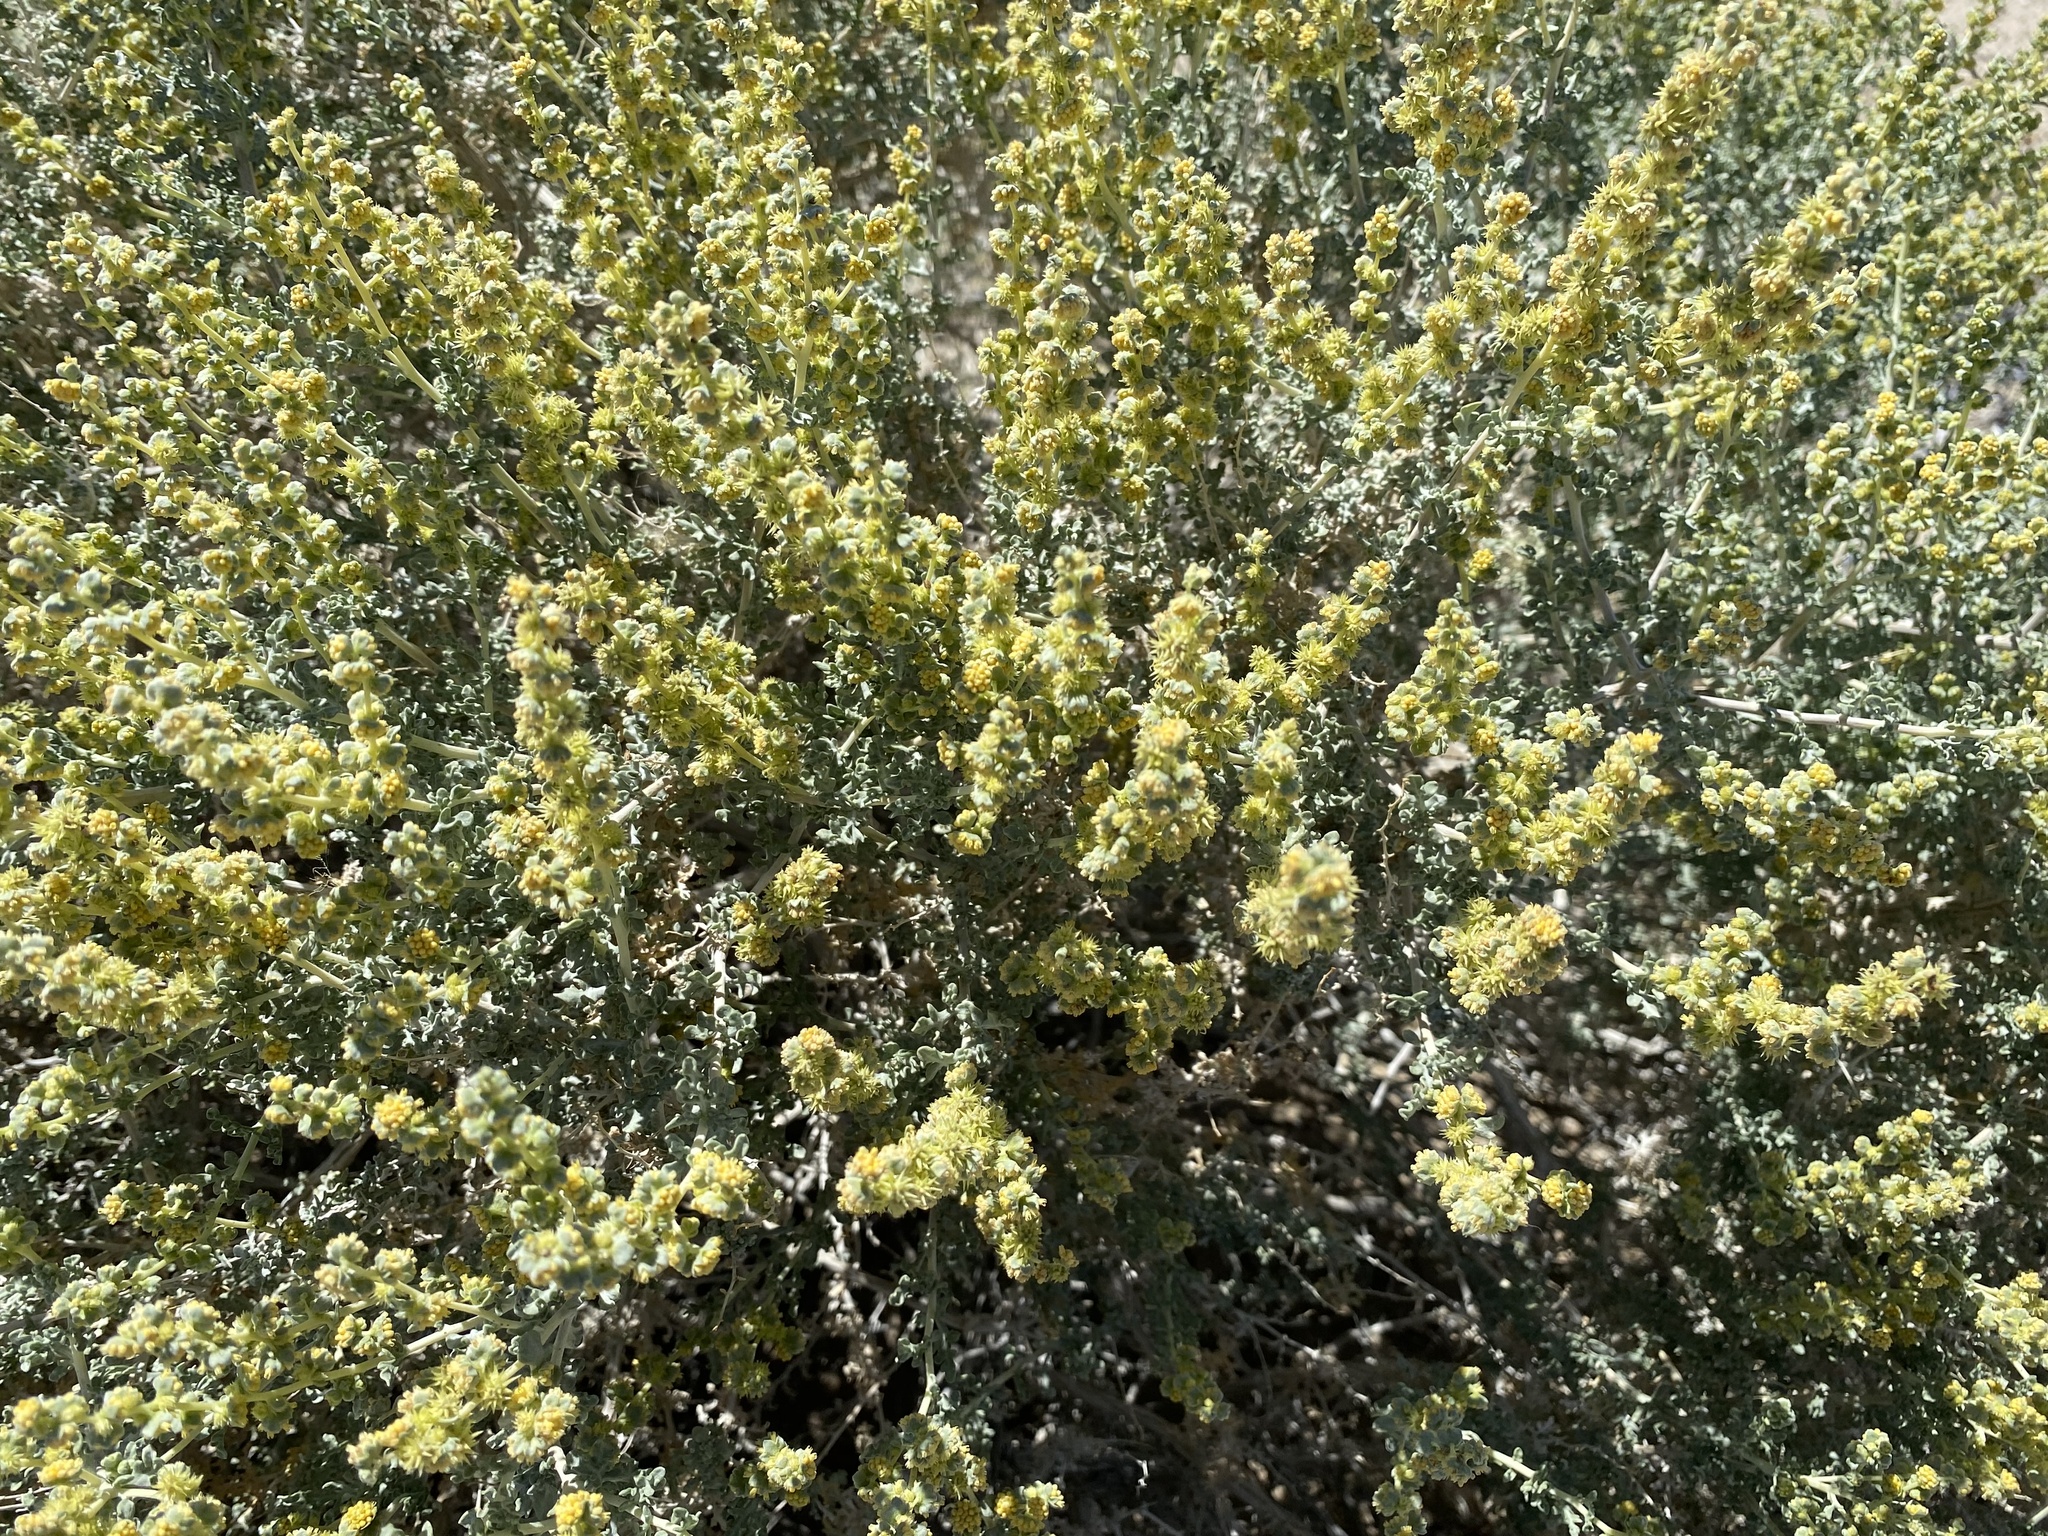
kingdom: Plantae
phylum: Tracheophyta
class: Magnoliopsida
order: Asterales
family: Asteraceae
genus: Ambrosia
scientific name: Ambrosia dumosa
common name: Bur-sage
